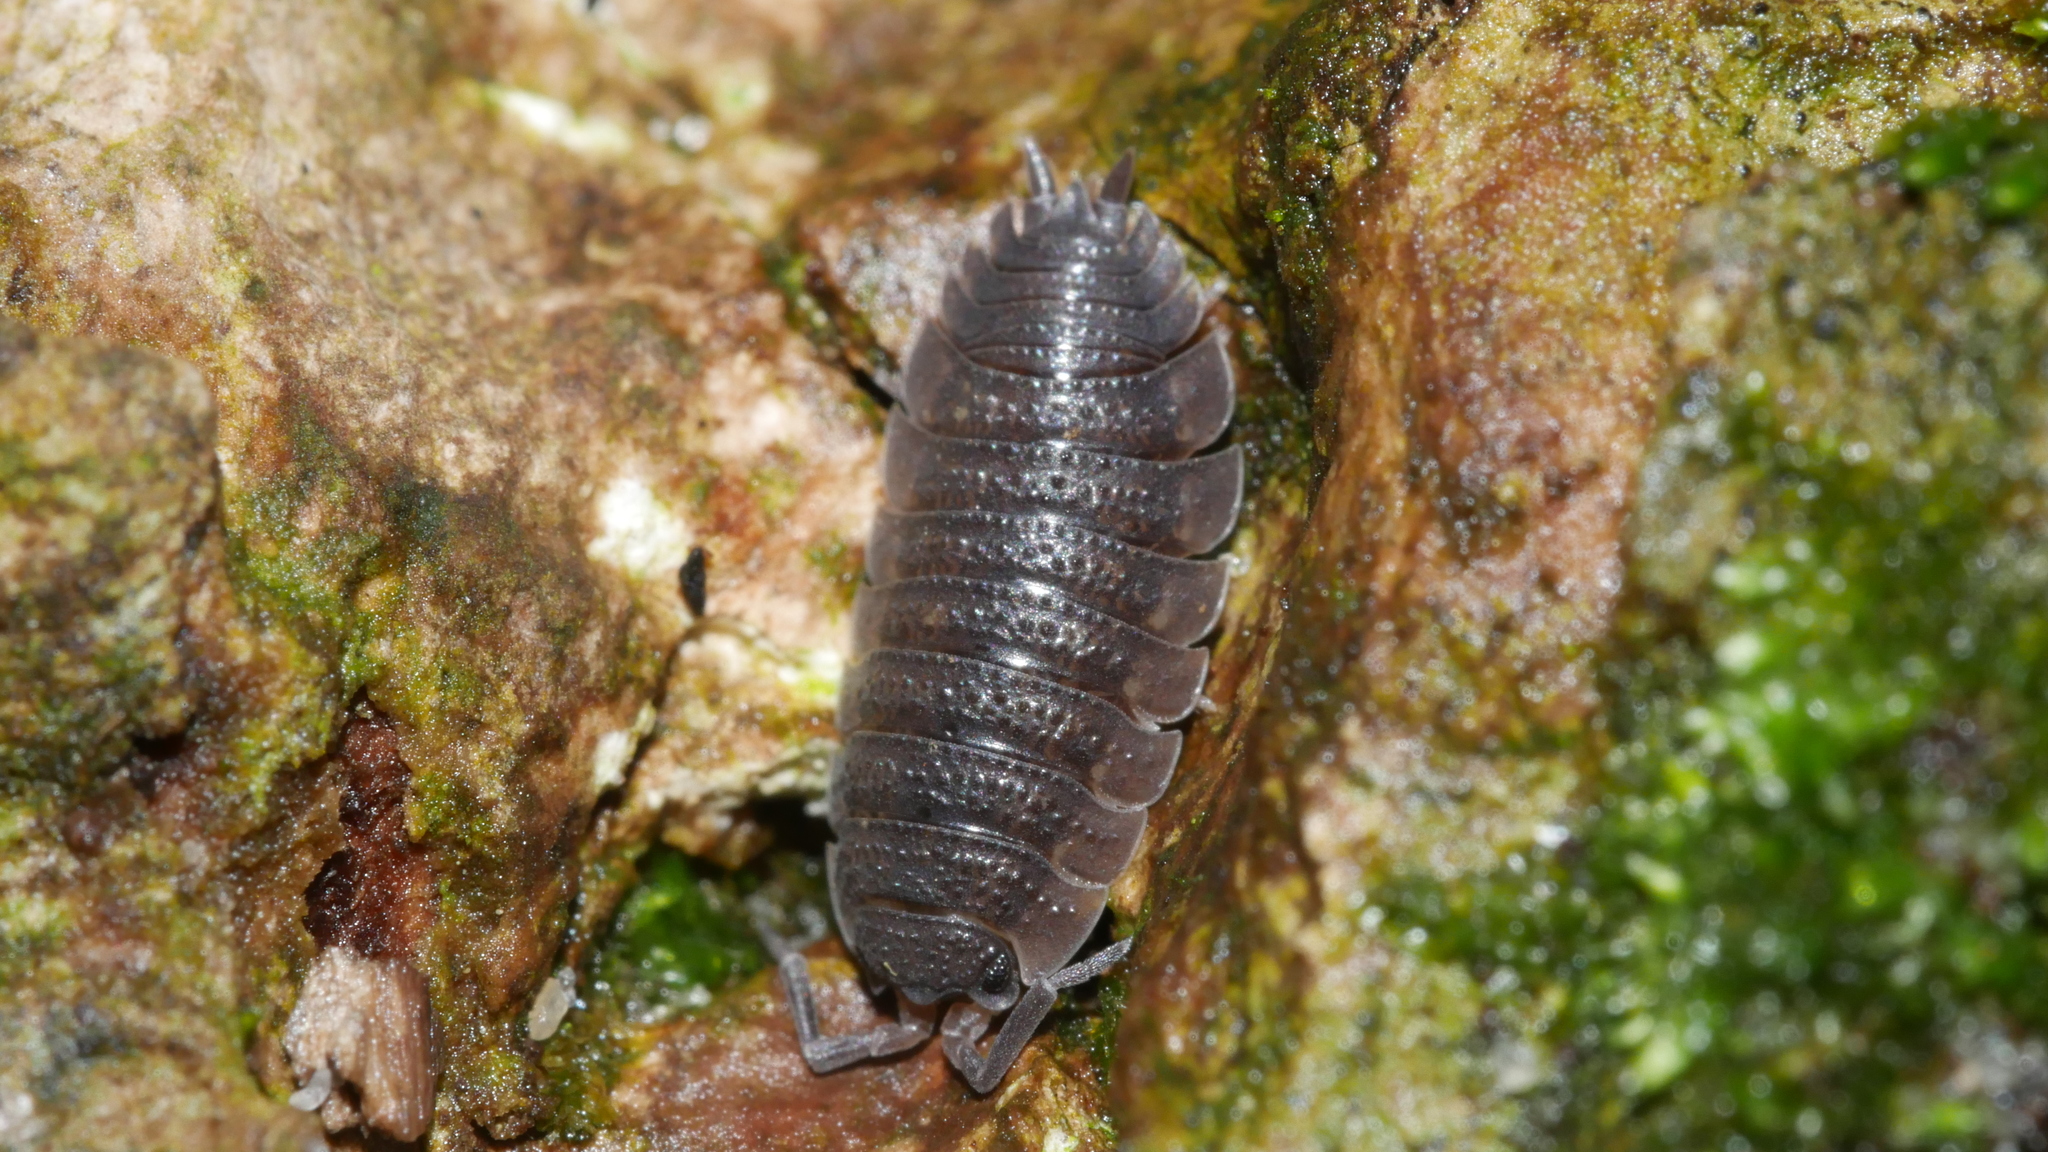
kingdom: Animalia
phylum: Arthropoda
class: Malacostraca
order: Isopoda
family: Porcellionidae
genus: Porcellio
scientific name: Porcellio scaber
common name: Common rough woodlouse
